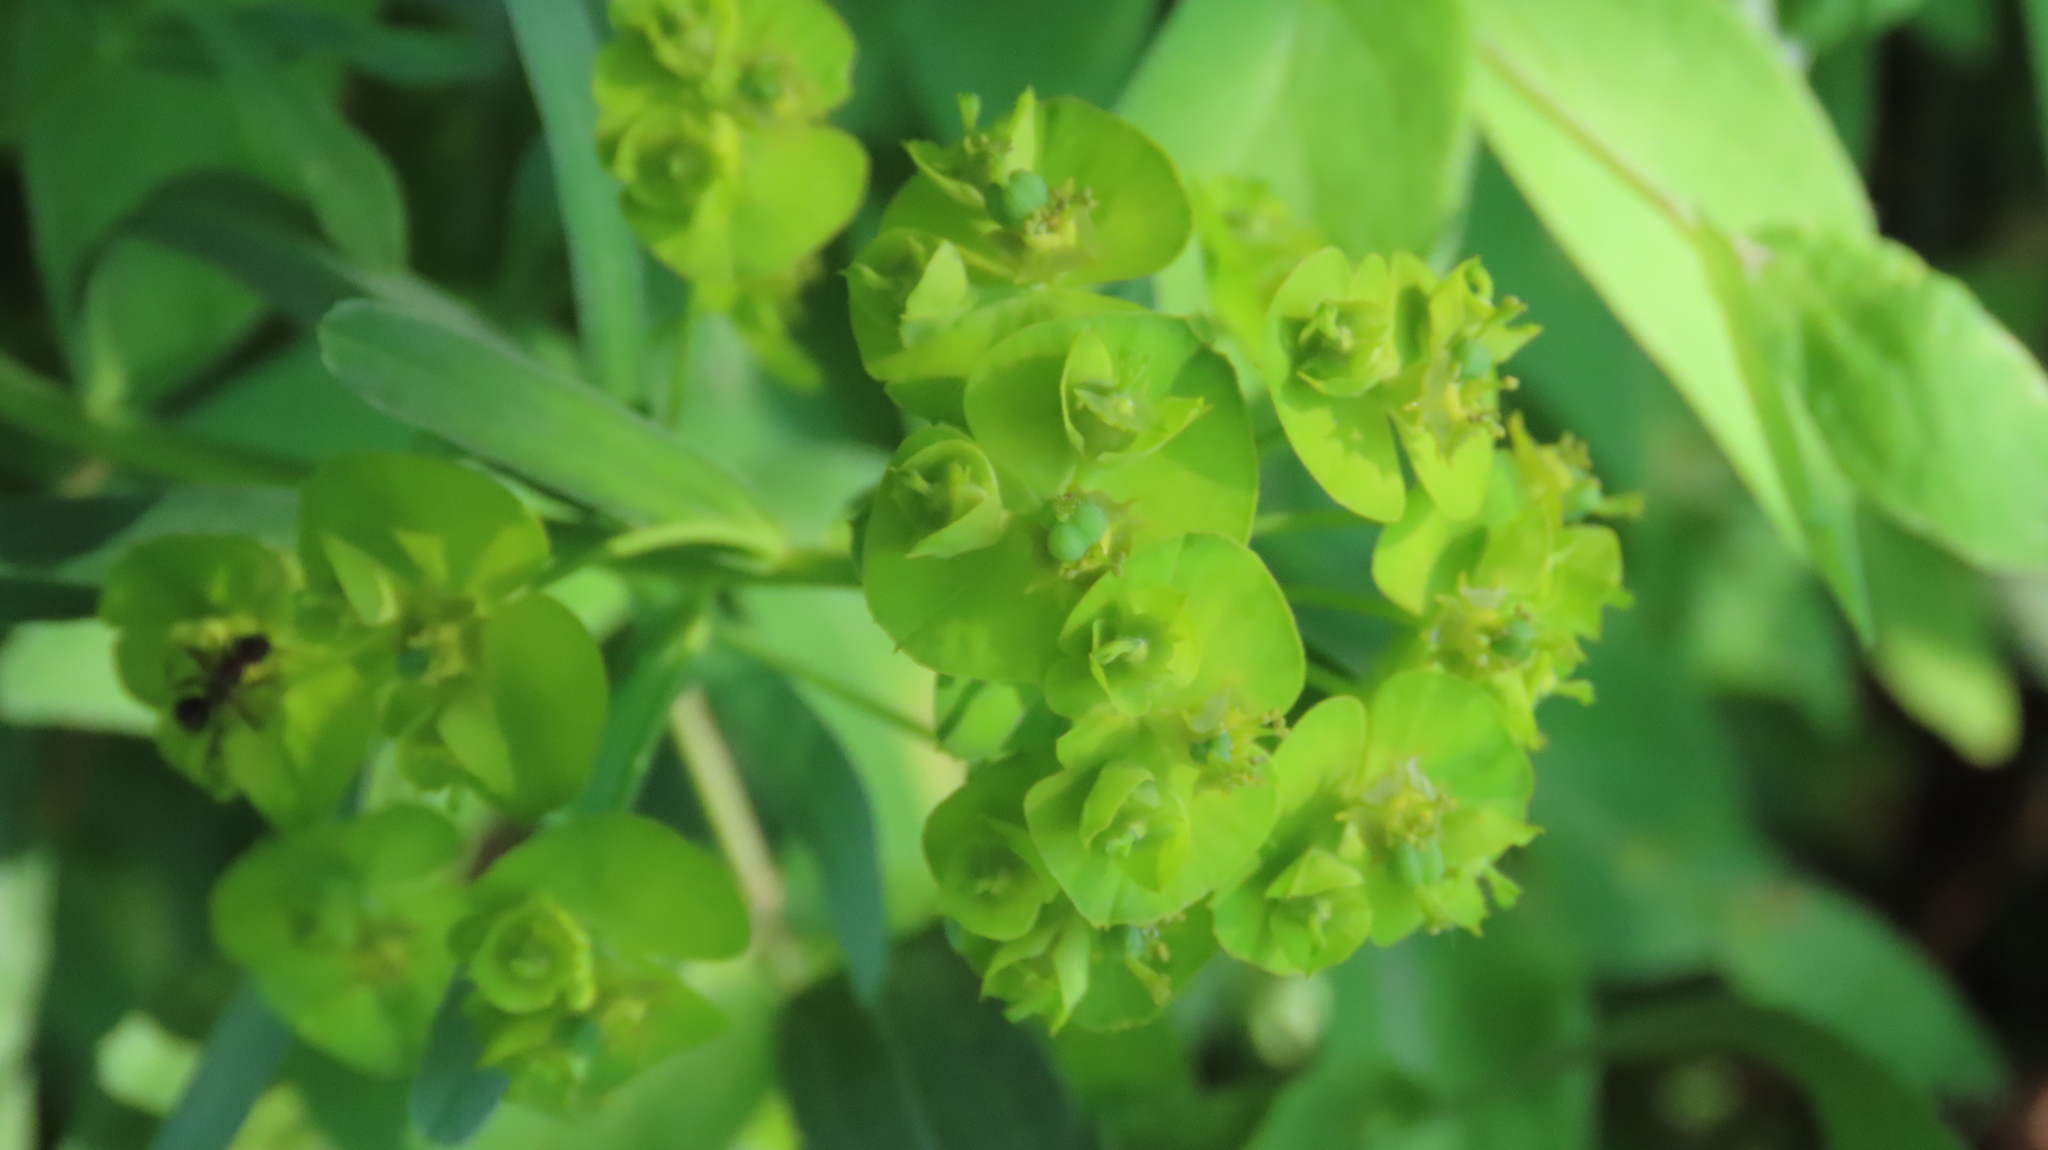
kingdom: Plantae
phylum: Tracheophyta
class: Magnoliopsida
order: Malpighiales
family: Euphorbiaceae
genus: Euphorbia
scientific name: Euphorbia virgata
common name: Leafy spurge
